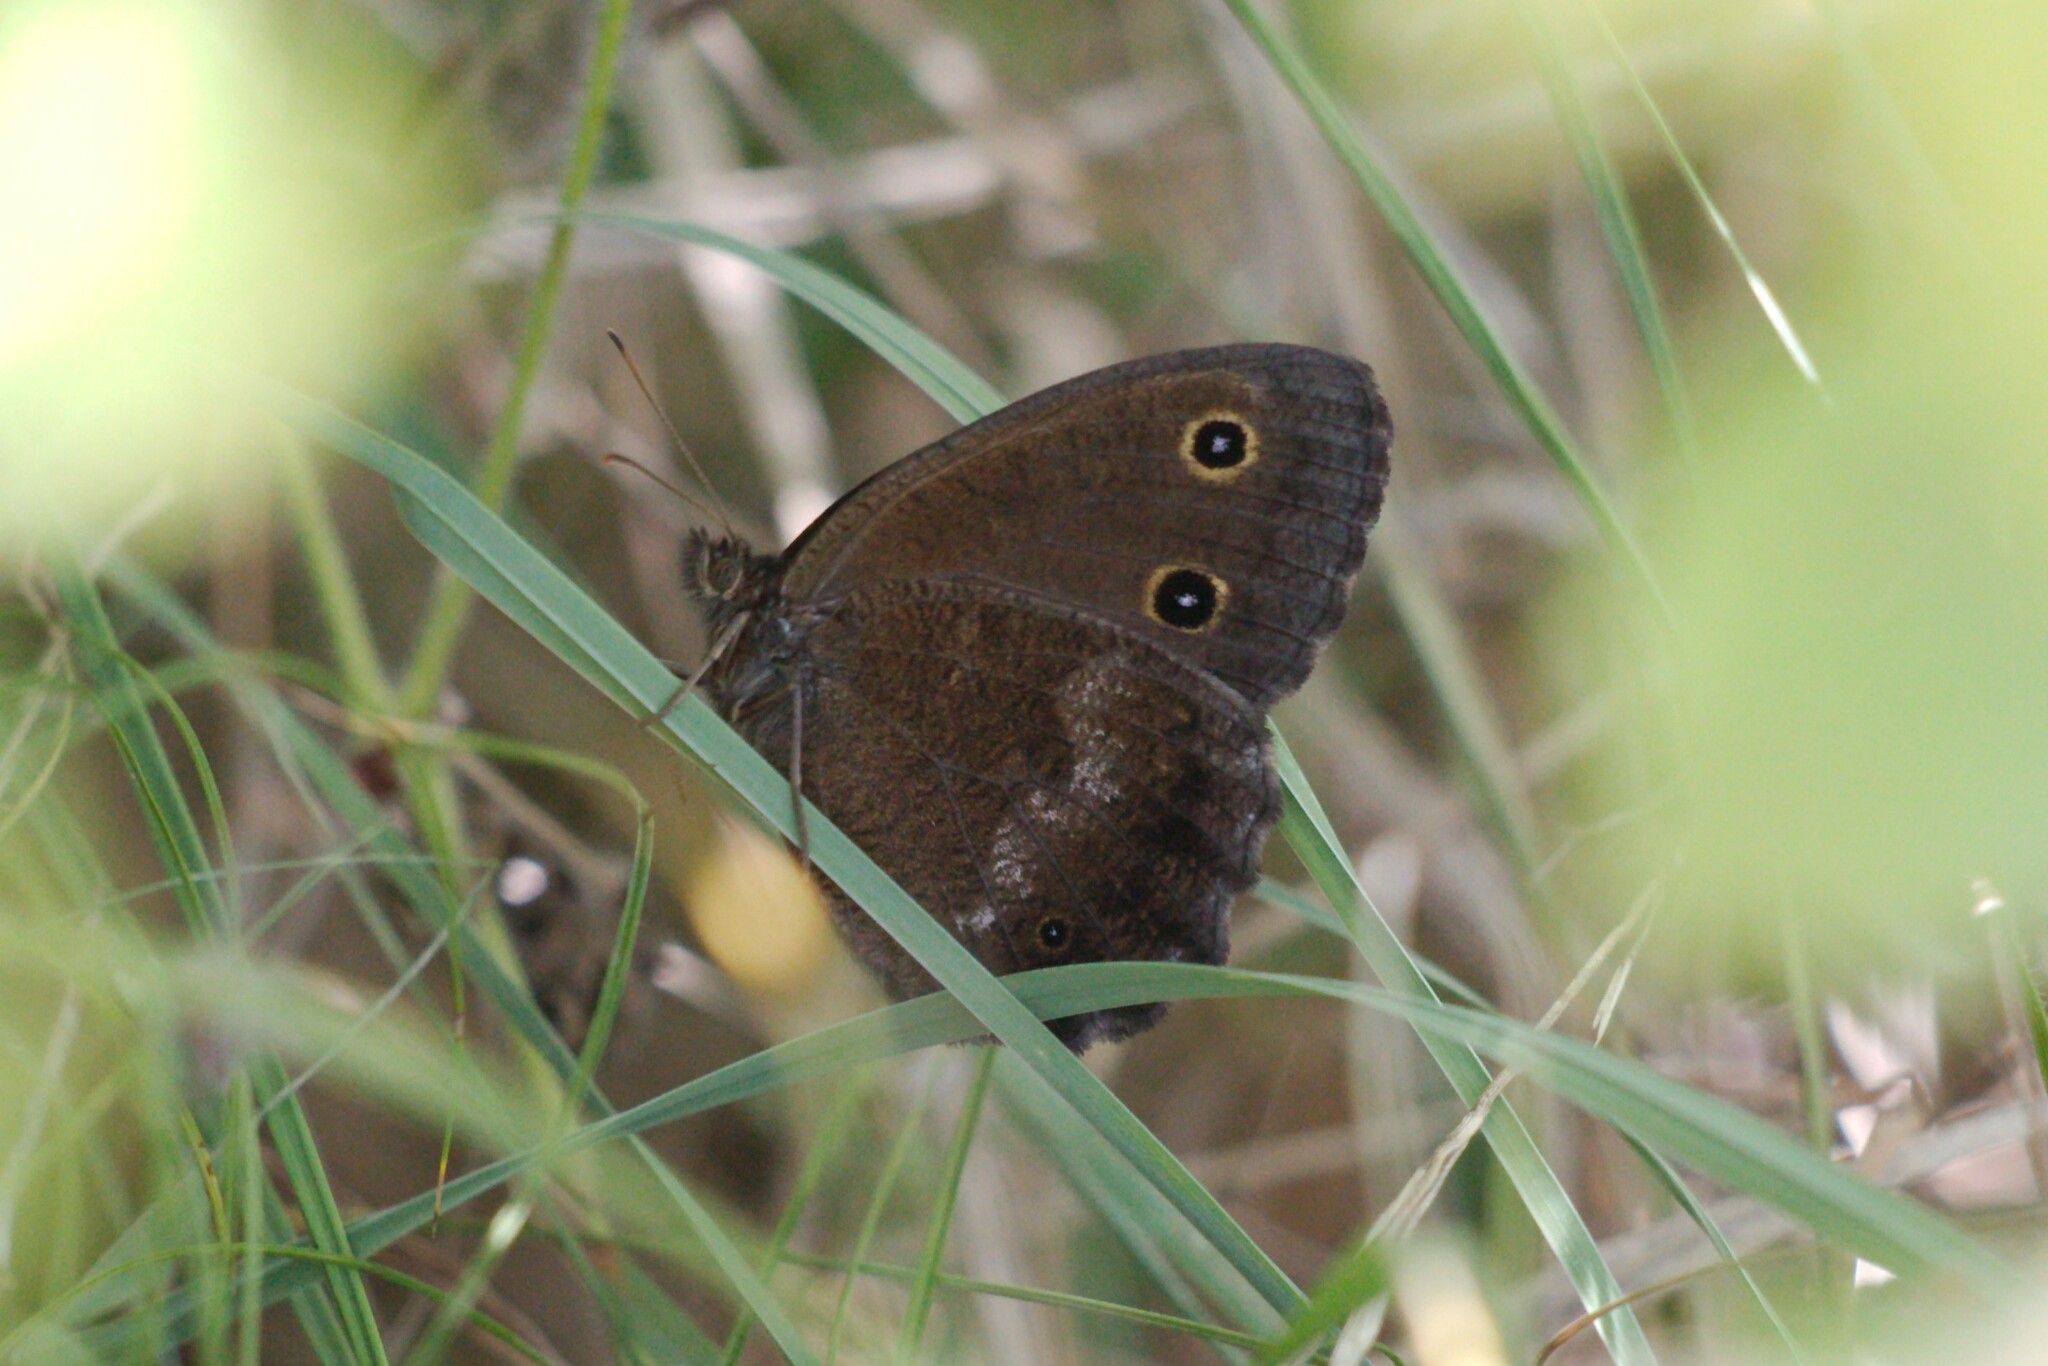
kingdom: Animalia
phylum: Arthropoda
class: Insecta
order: Lepidoptera
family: Nymphalidae
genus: Minois
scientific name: Minois dryas
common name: Dryad
